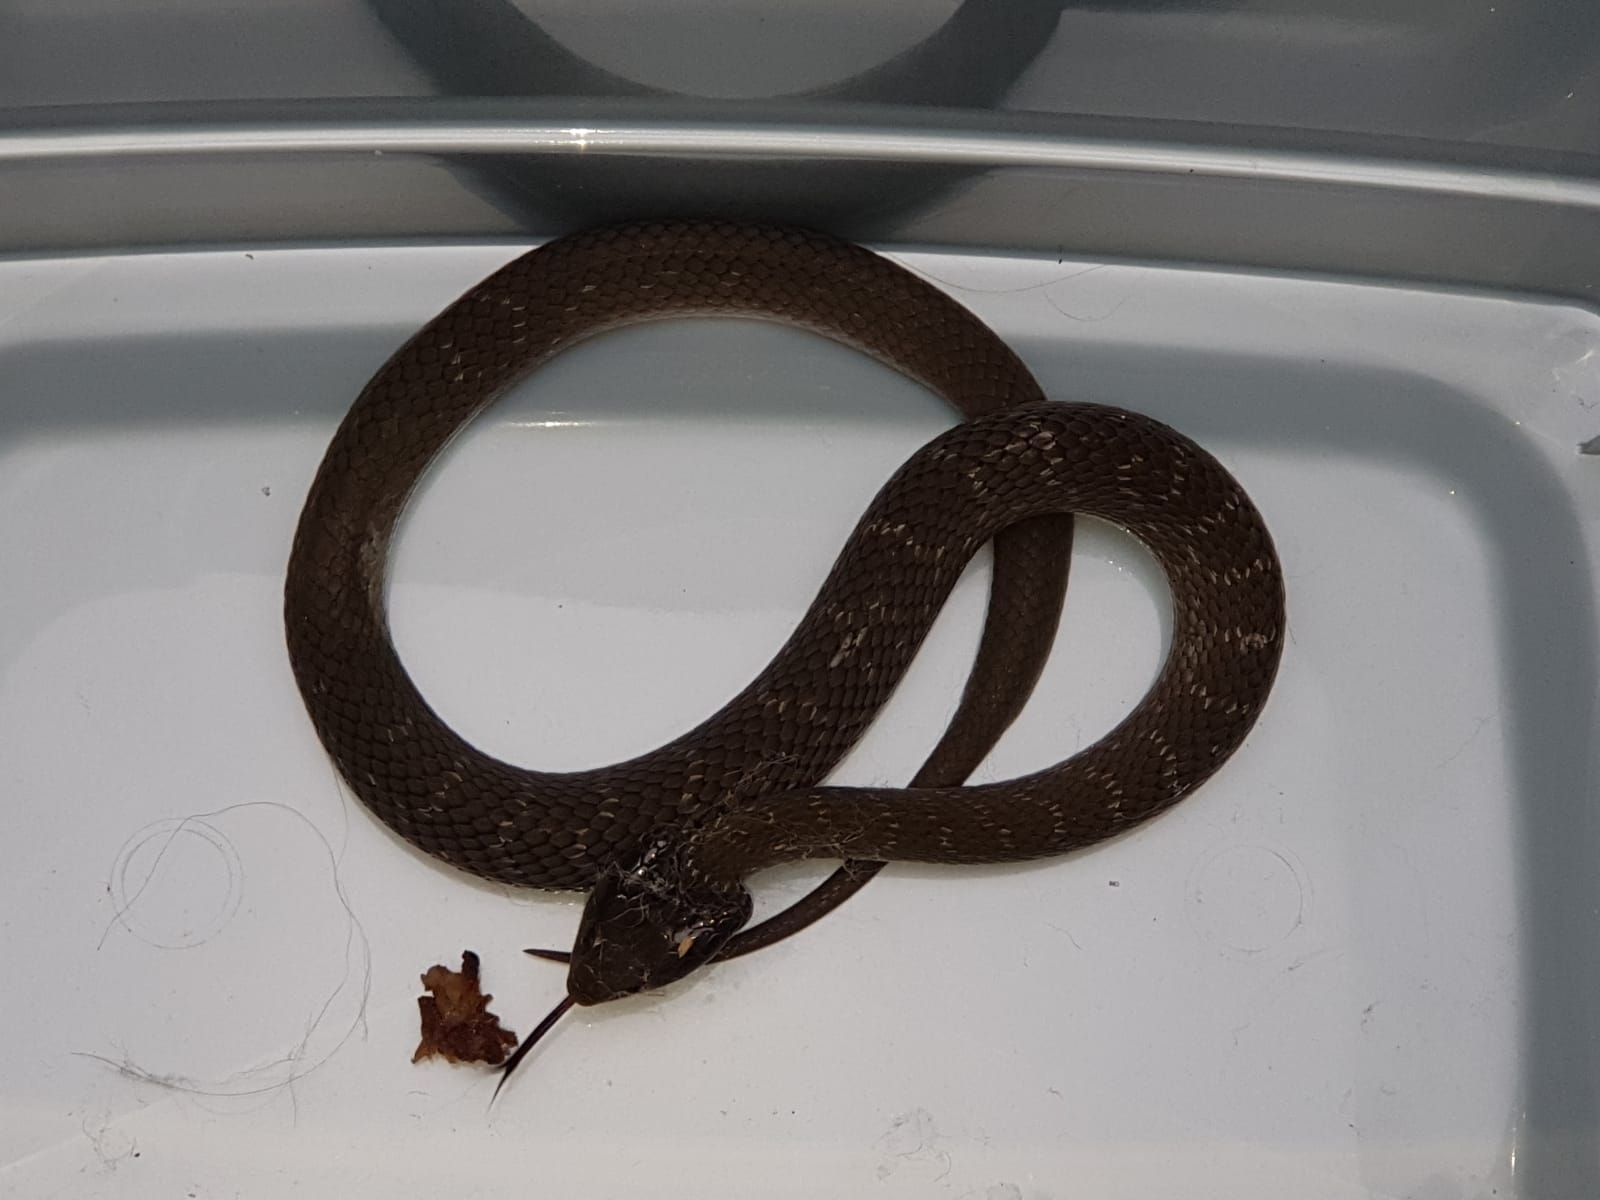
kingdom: Animalia
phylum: Chordata
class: Squamata
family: Colubridae
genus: Crotaphopeltis
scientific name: Crotaphopeltis hotamboeia
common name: Red-lipped snake
